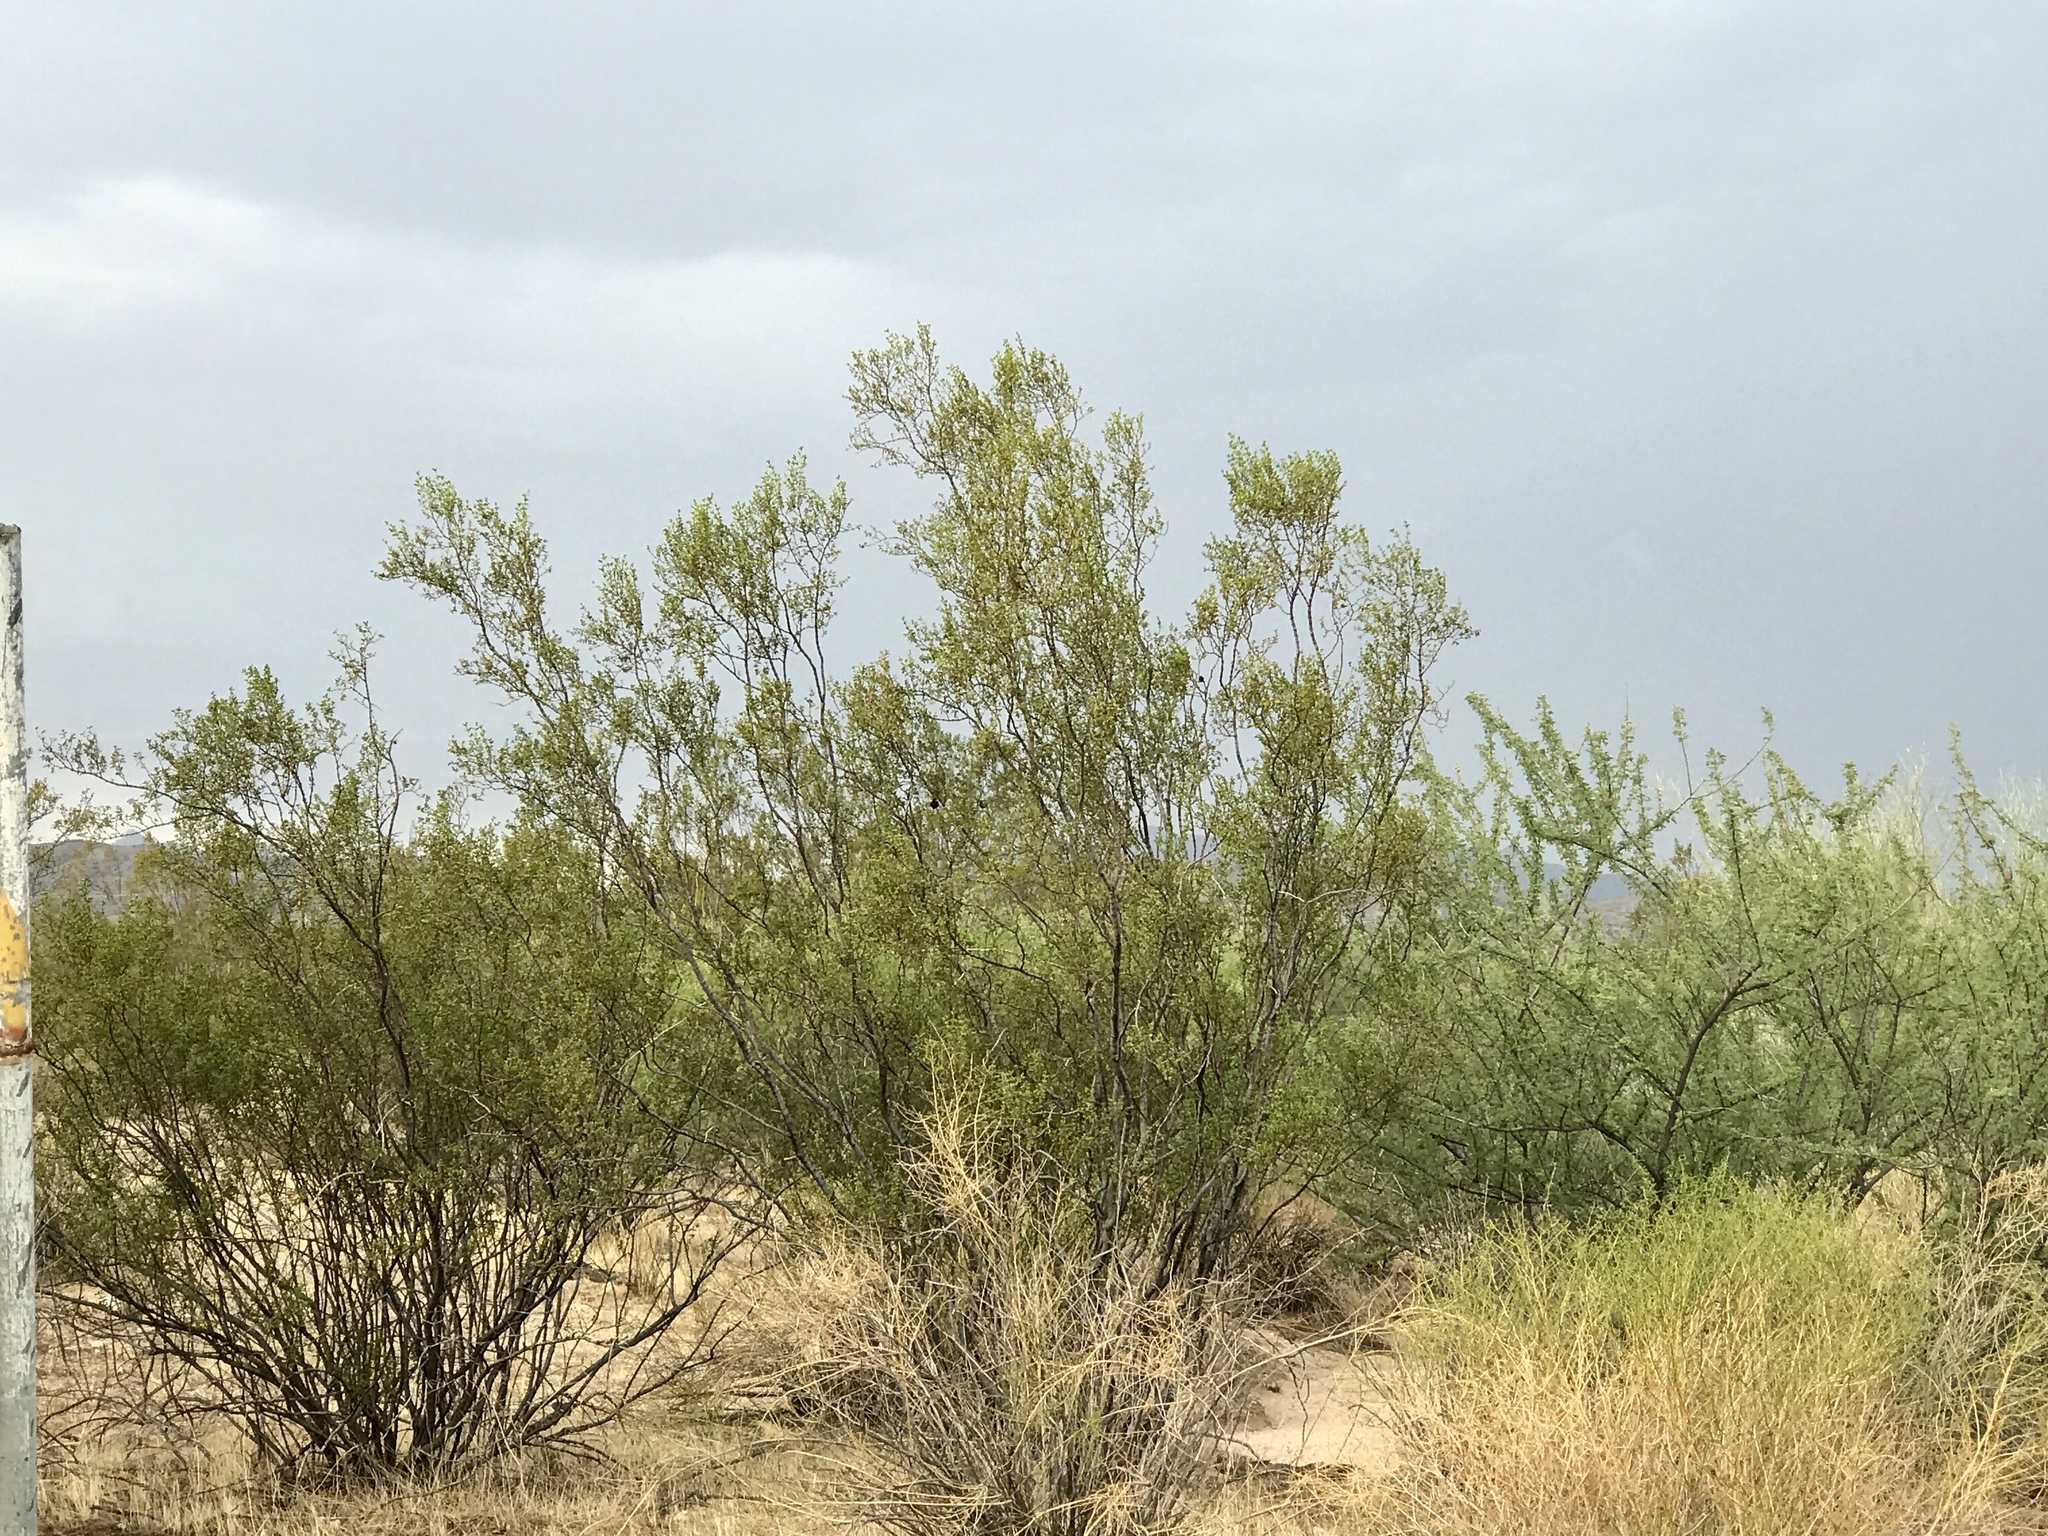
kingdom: Plantae
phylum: Tracheophyta
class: Magnoliopsida
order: Zygophyllales
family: Zygophyllaceae
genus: Larrea
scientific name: Larrea tridentata
